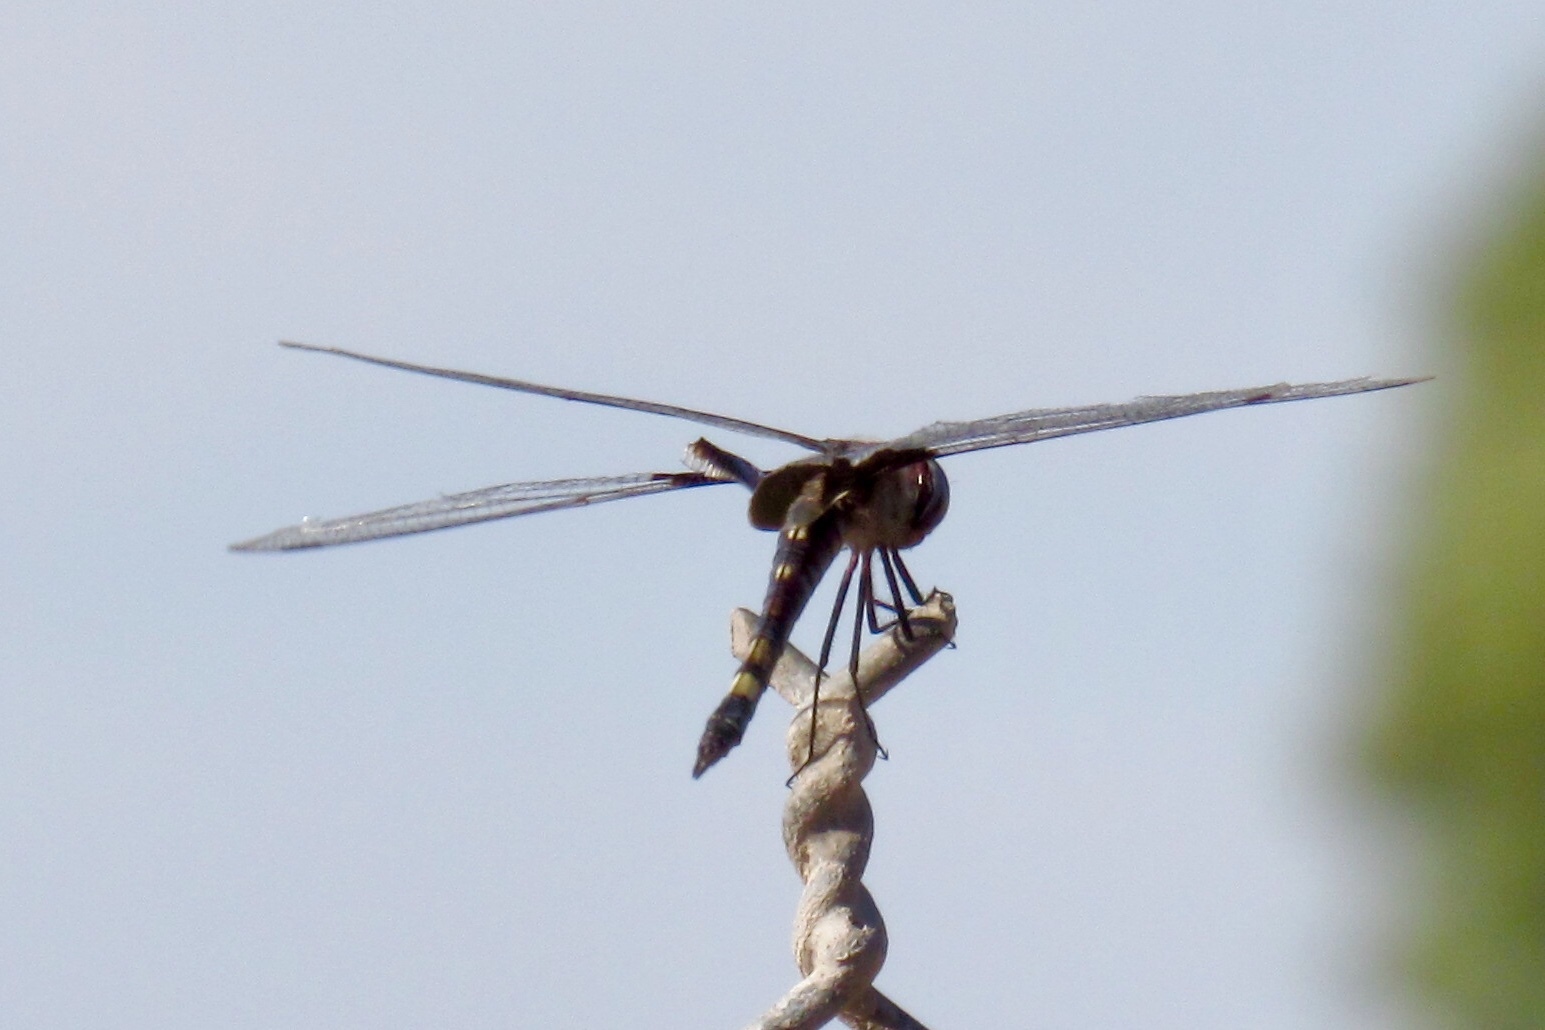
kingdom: Animalia
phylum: Arthropoda
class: Insecta
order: Odonata
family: Libellulidae
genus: Tramea
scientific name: Tramea lacerata
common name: Black saddlebags
